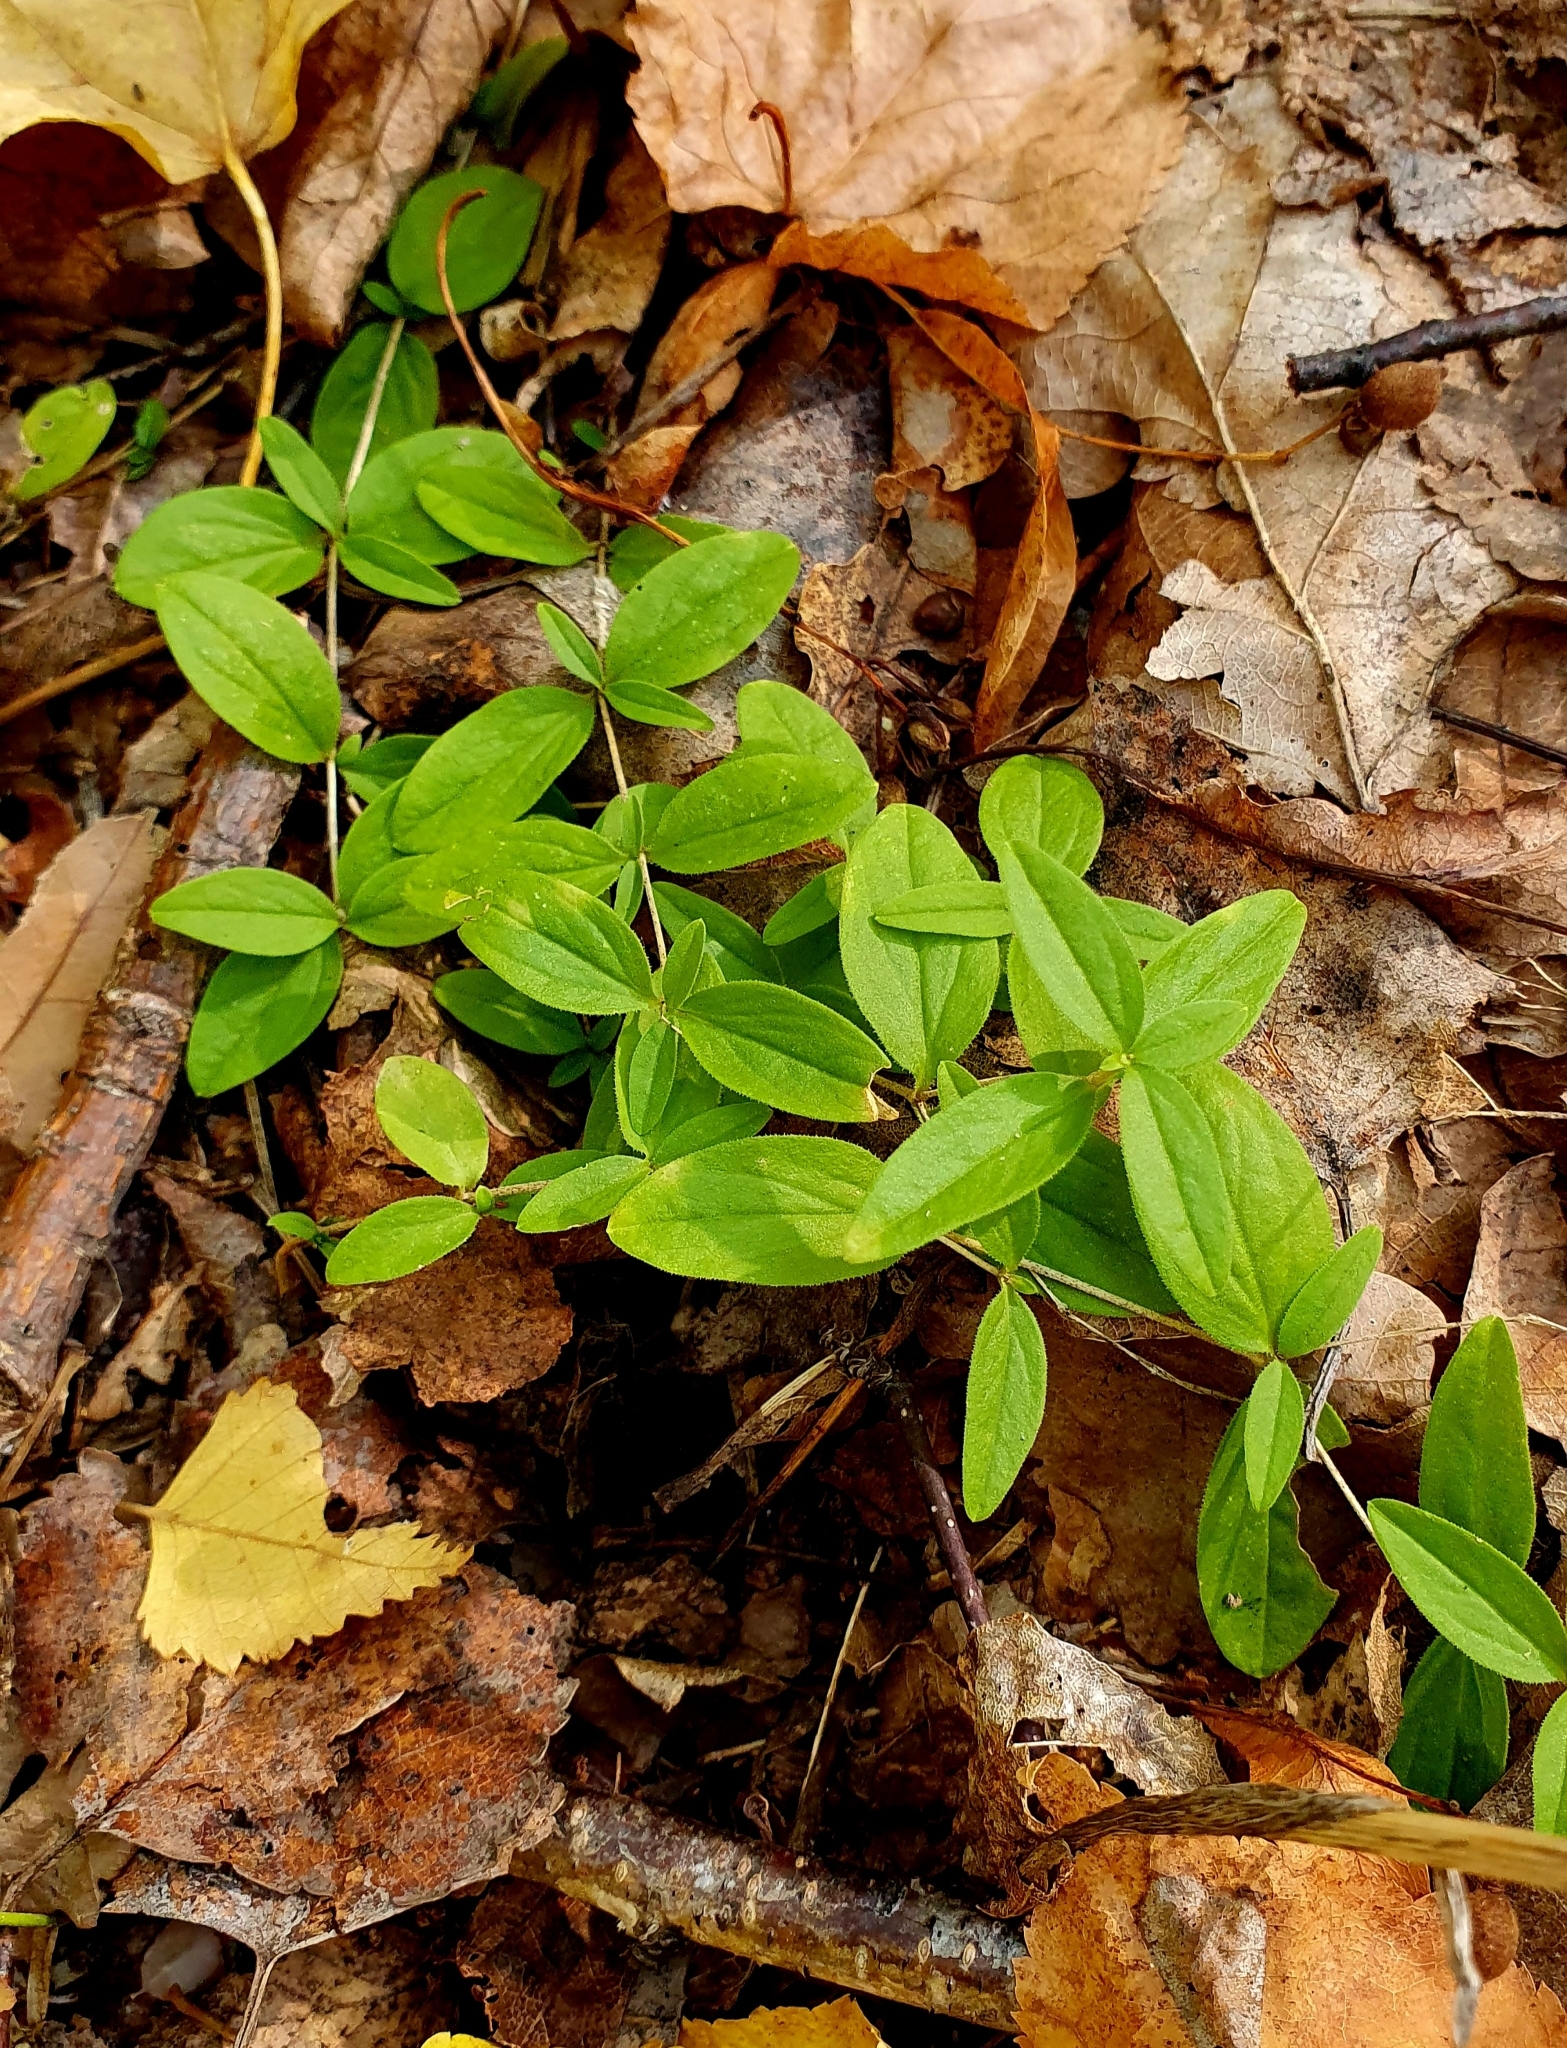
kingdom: Plantae
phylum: Tracheophyta
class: Magnoliopsida
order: Caryophyllales
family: Caryophyllaceae
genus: Moehringia
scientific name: Moehringia lateriflora
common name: Blunt-leaved sandwort
